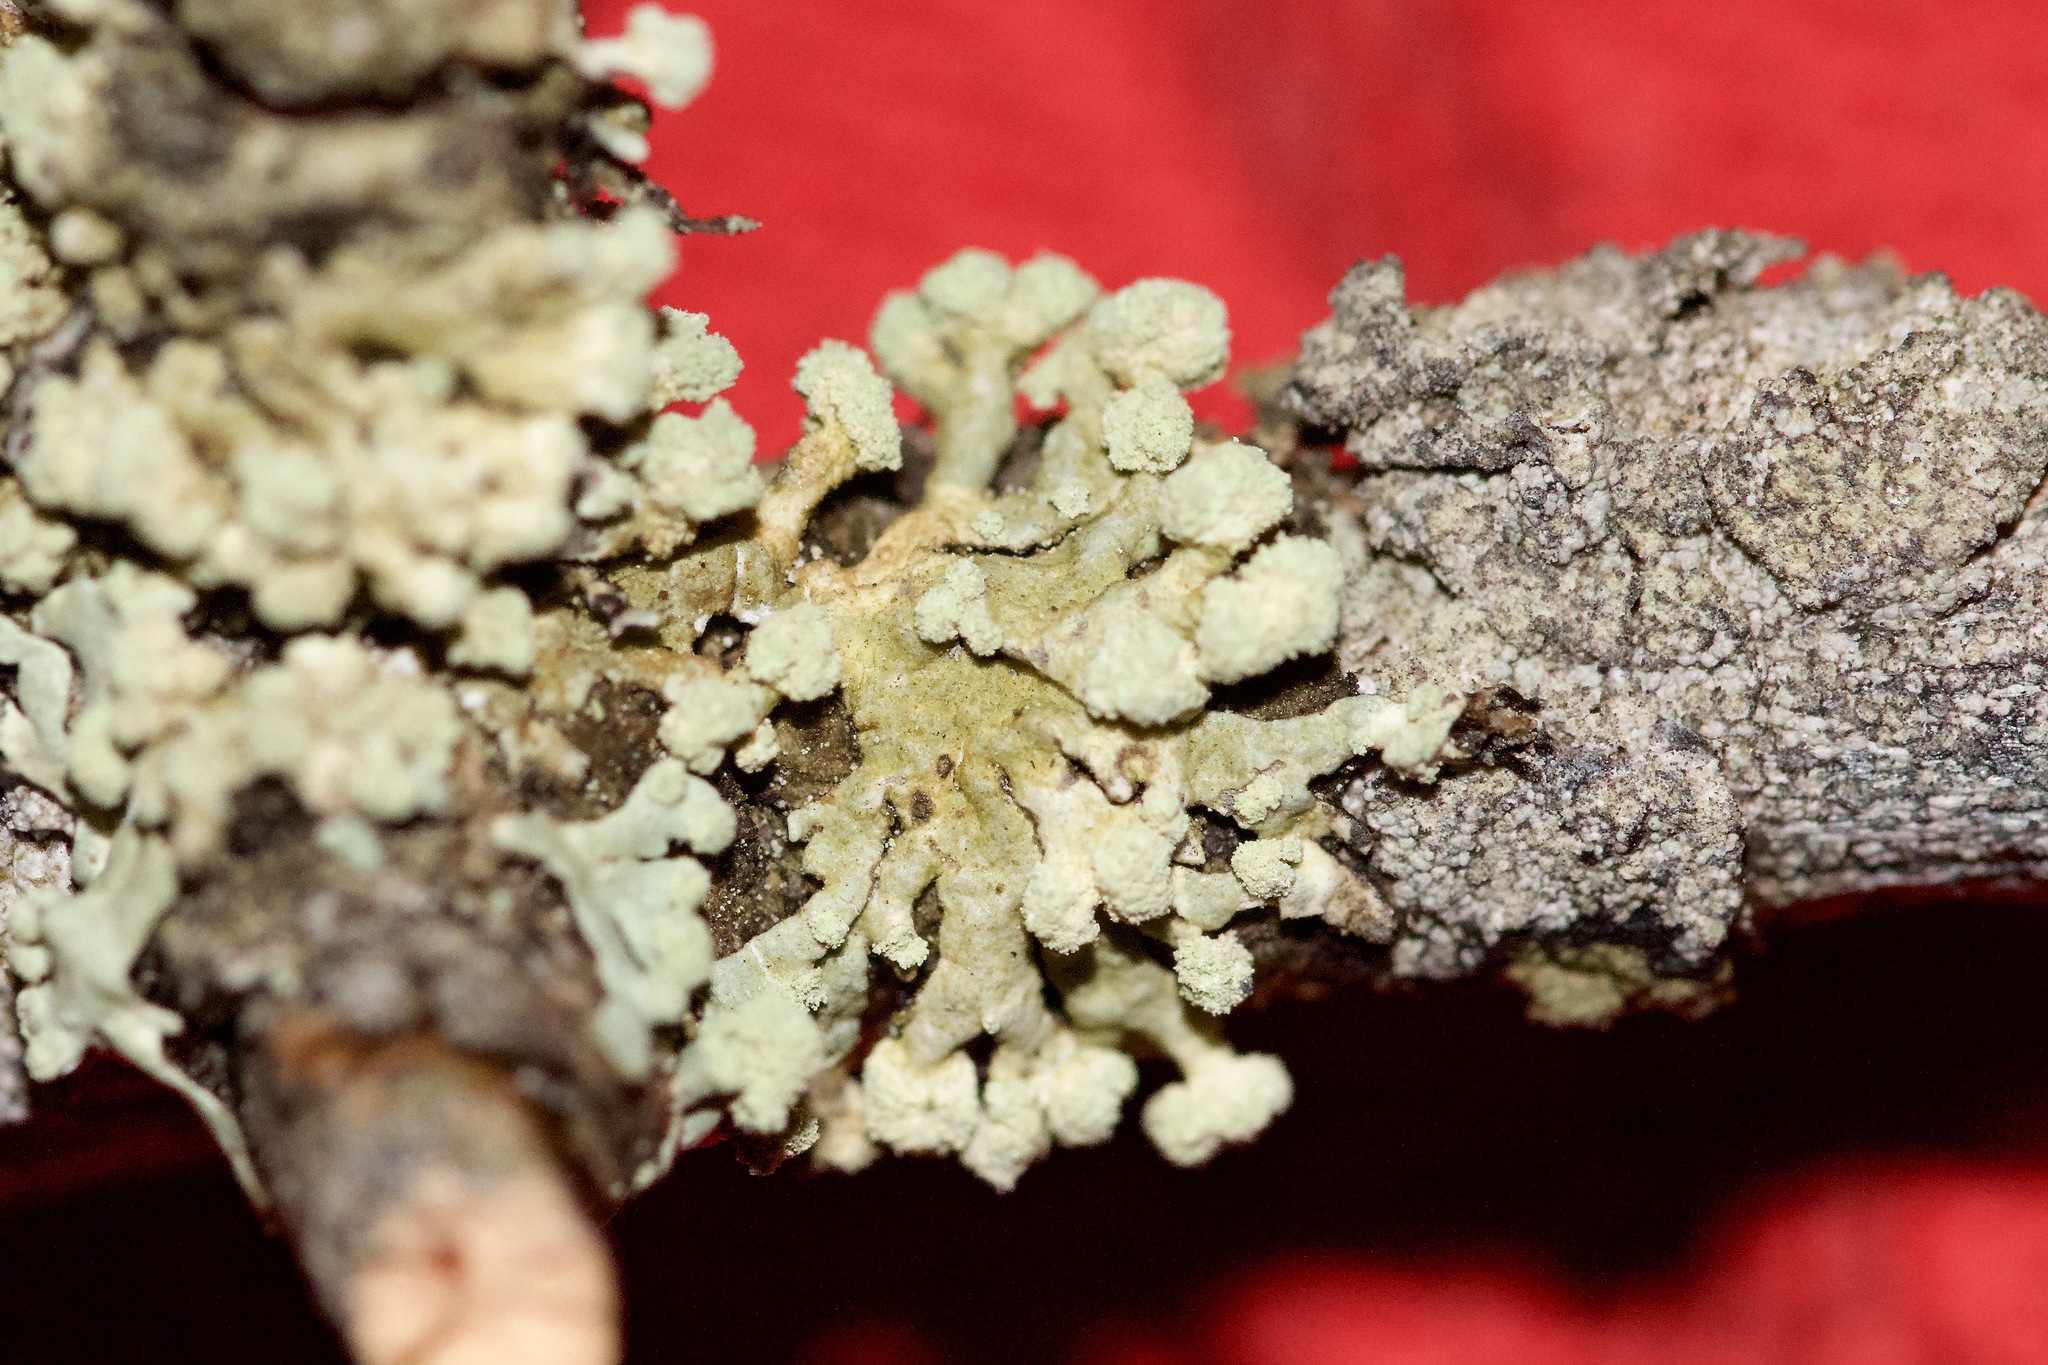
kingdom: Fungi
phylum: Ascomycota
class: Lecanoromycetes
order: Lecanorales
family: Parmeliaceae
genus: Parmeliopsis
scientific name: Parmeliopsis
